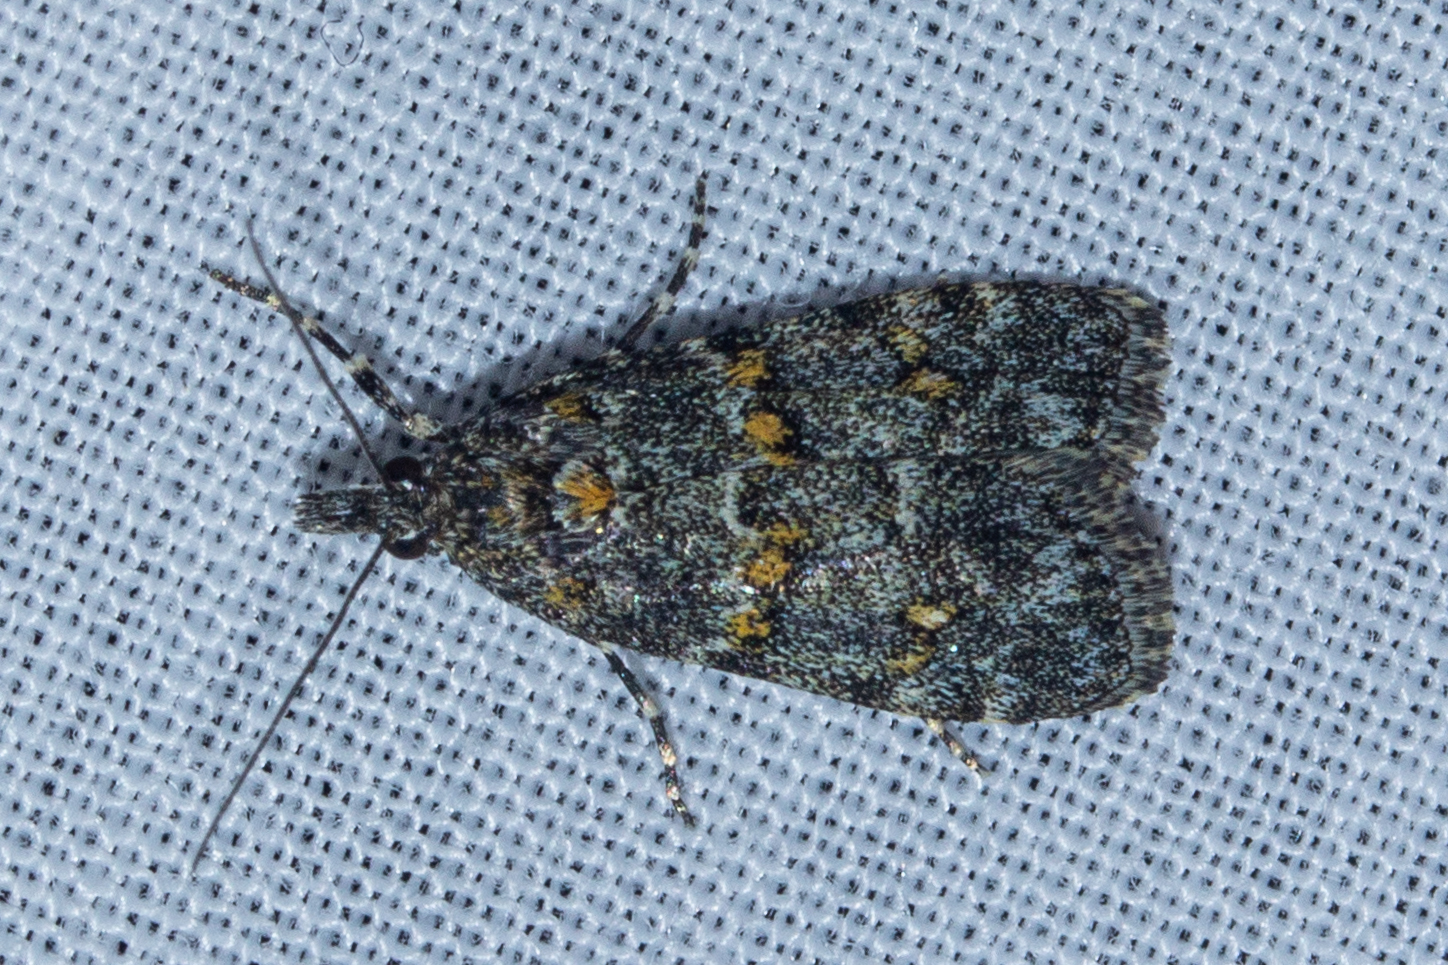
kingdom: Animalia
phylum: Arthropoda
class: Insecta
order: Lepidoptera
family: Crambidae
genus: Eudonia
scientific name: Eudonia microphthalma
